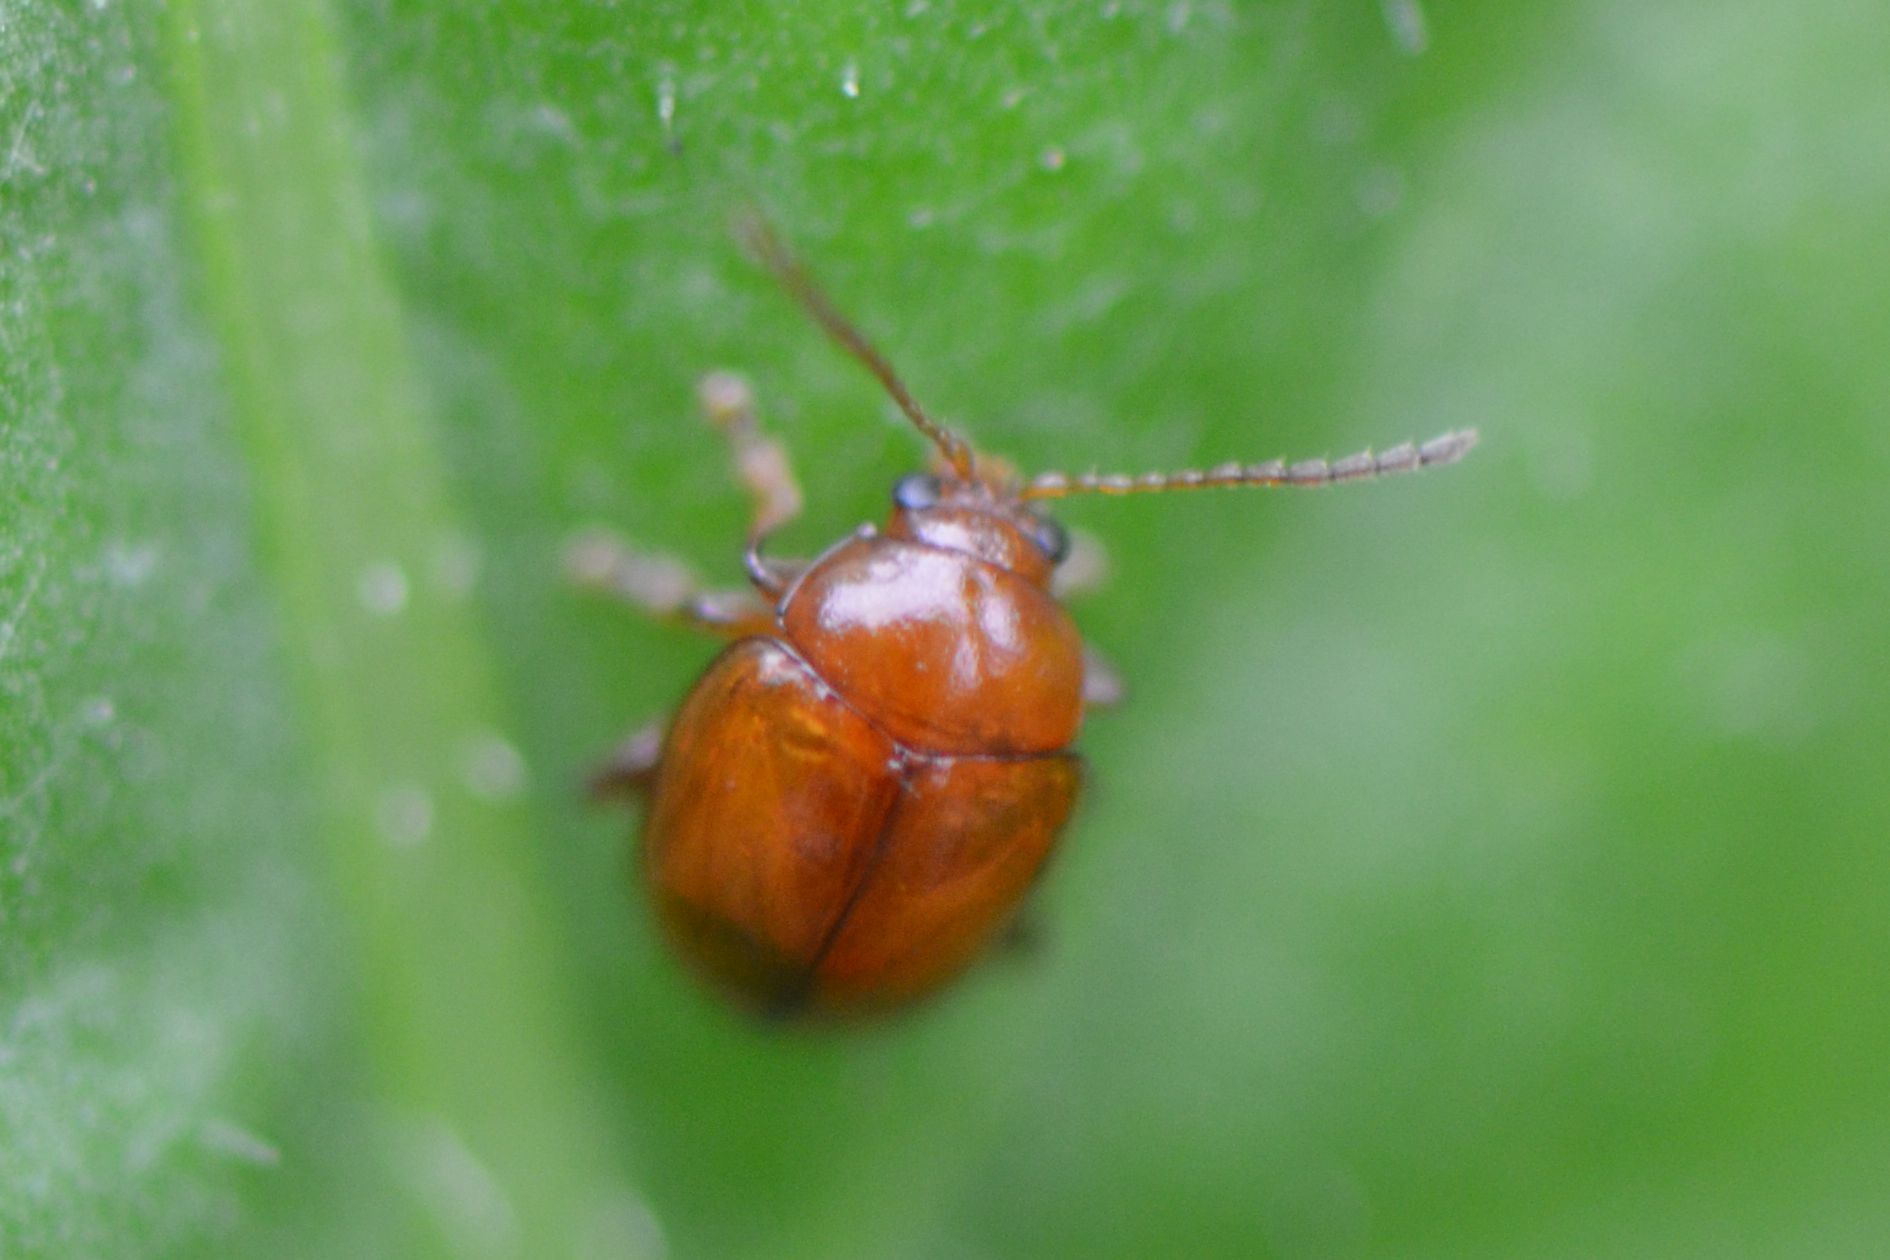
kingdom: Animalia
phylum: Arthropoda
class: Insecta
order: Coleoptera
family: Chrysomelidae
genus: Pistosia
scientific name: Pistosia testacea
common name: Leaf beetle
